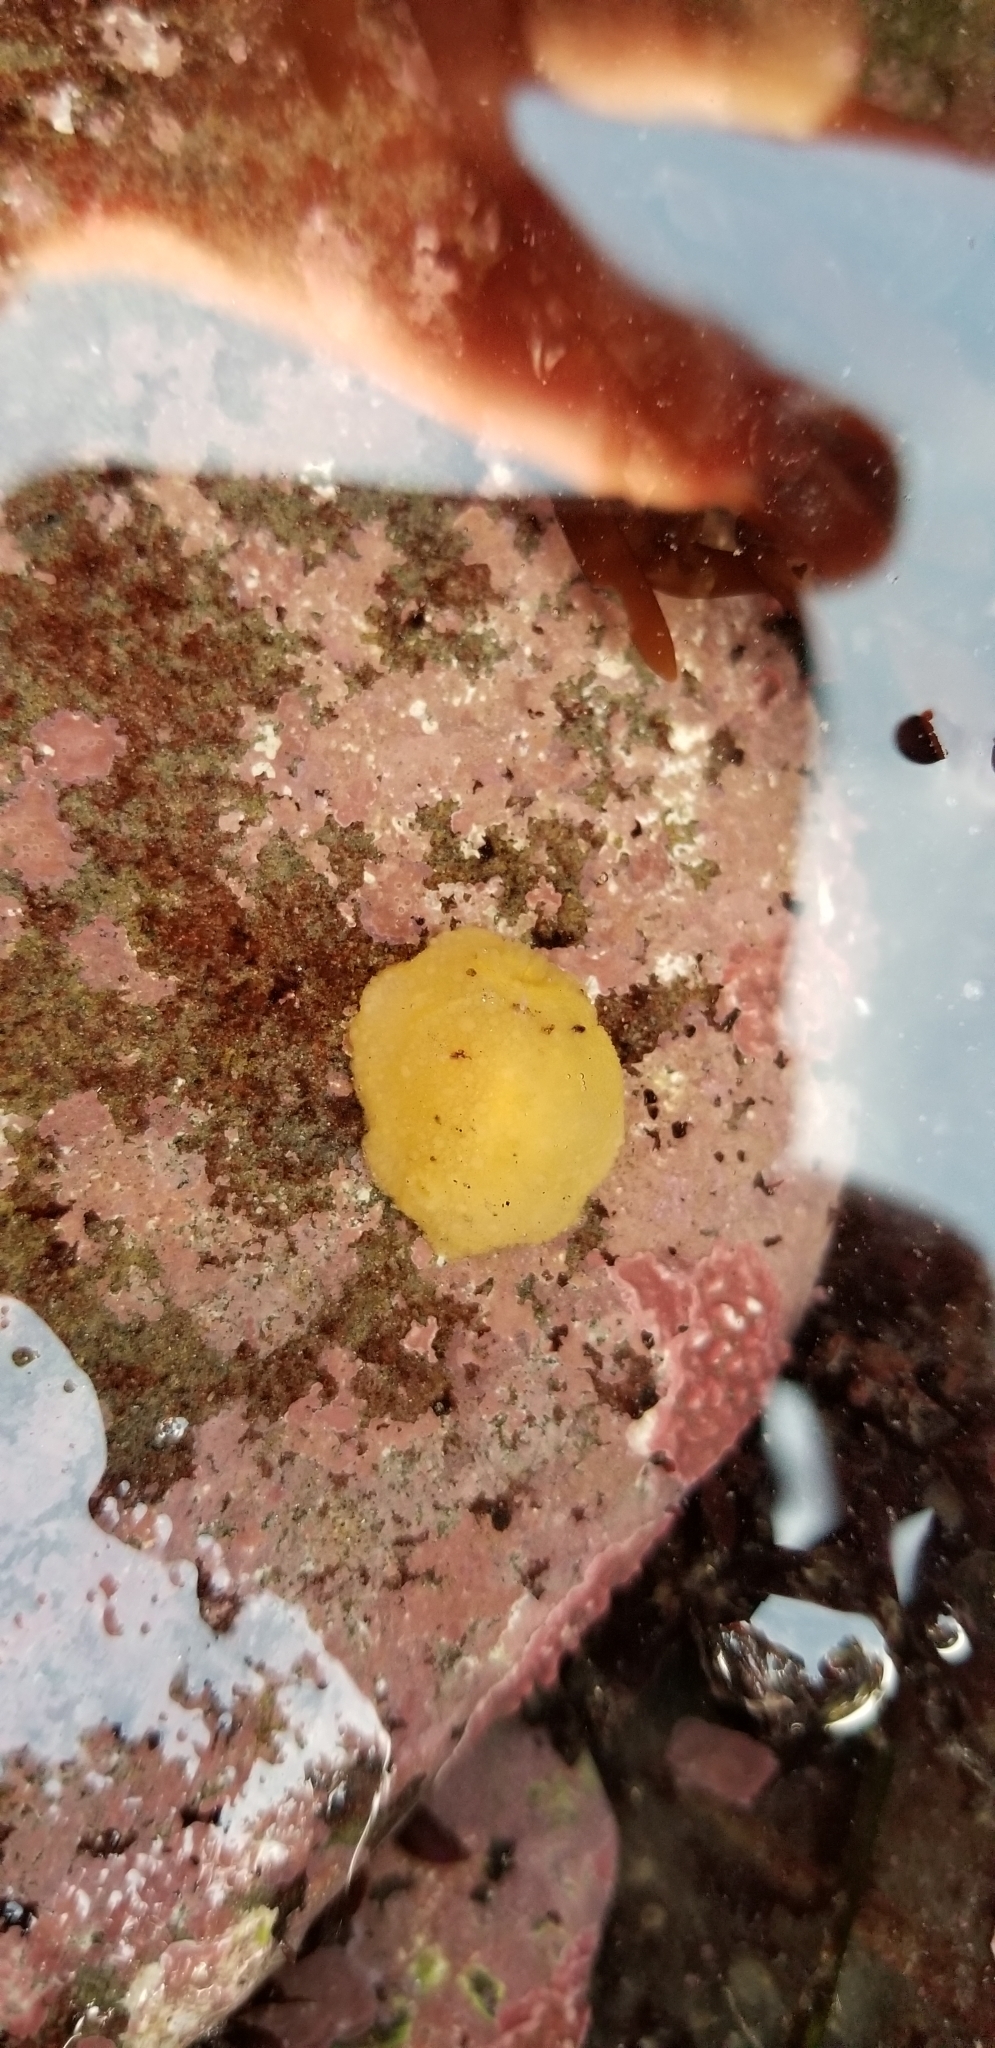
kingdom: Animalia
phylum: Mollusca
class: Gastropoda
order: Nudibranchia
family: Dorididae
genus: Doris
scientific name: Doris montereyensis
